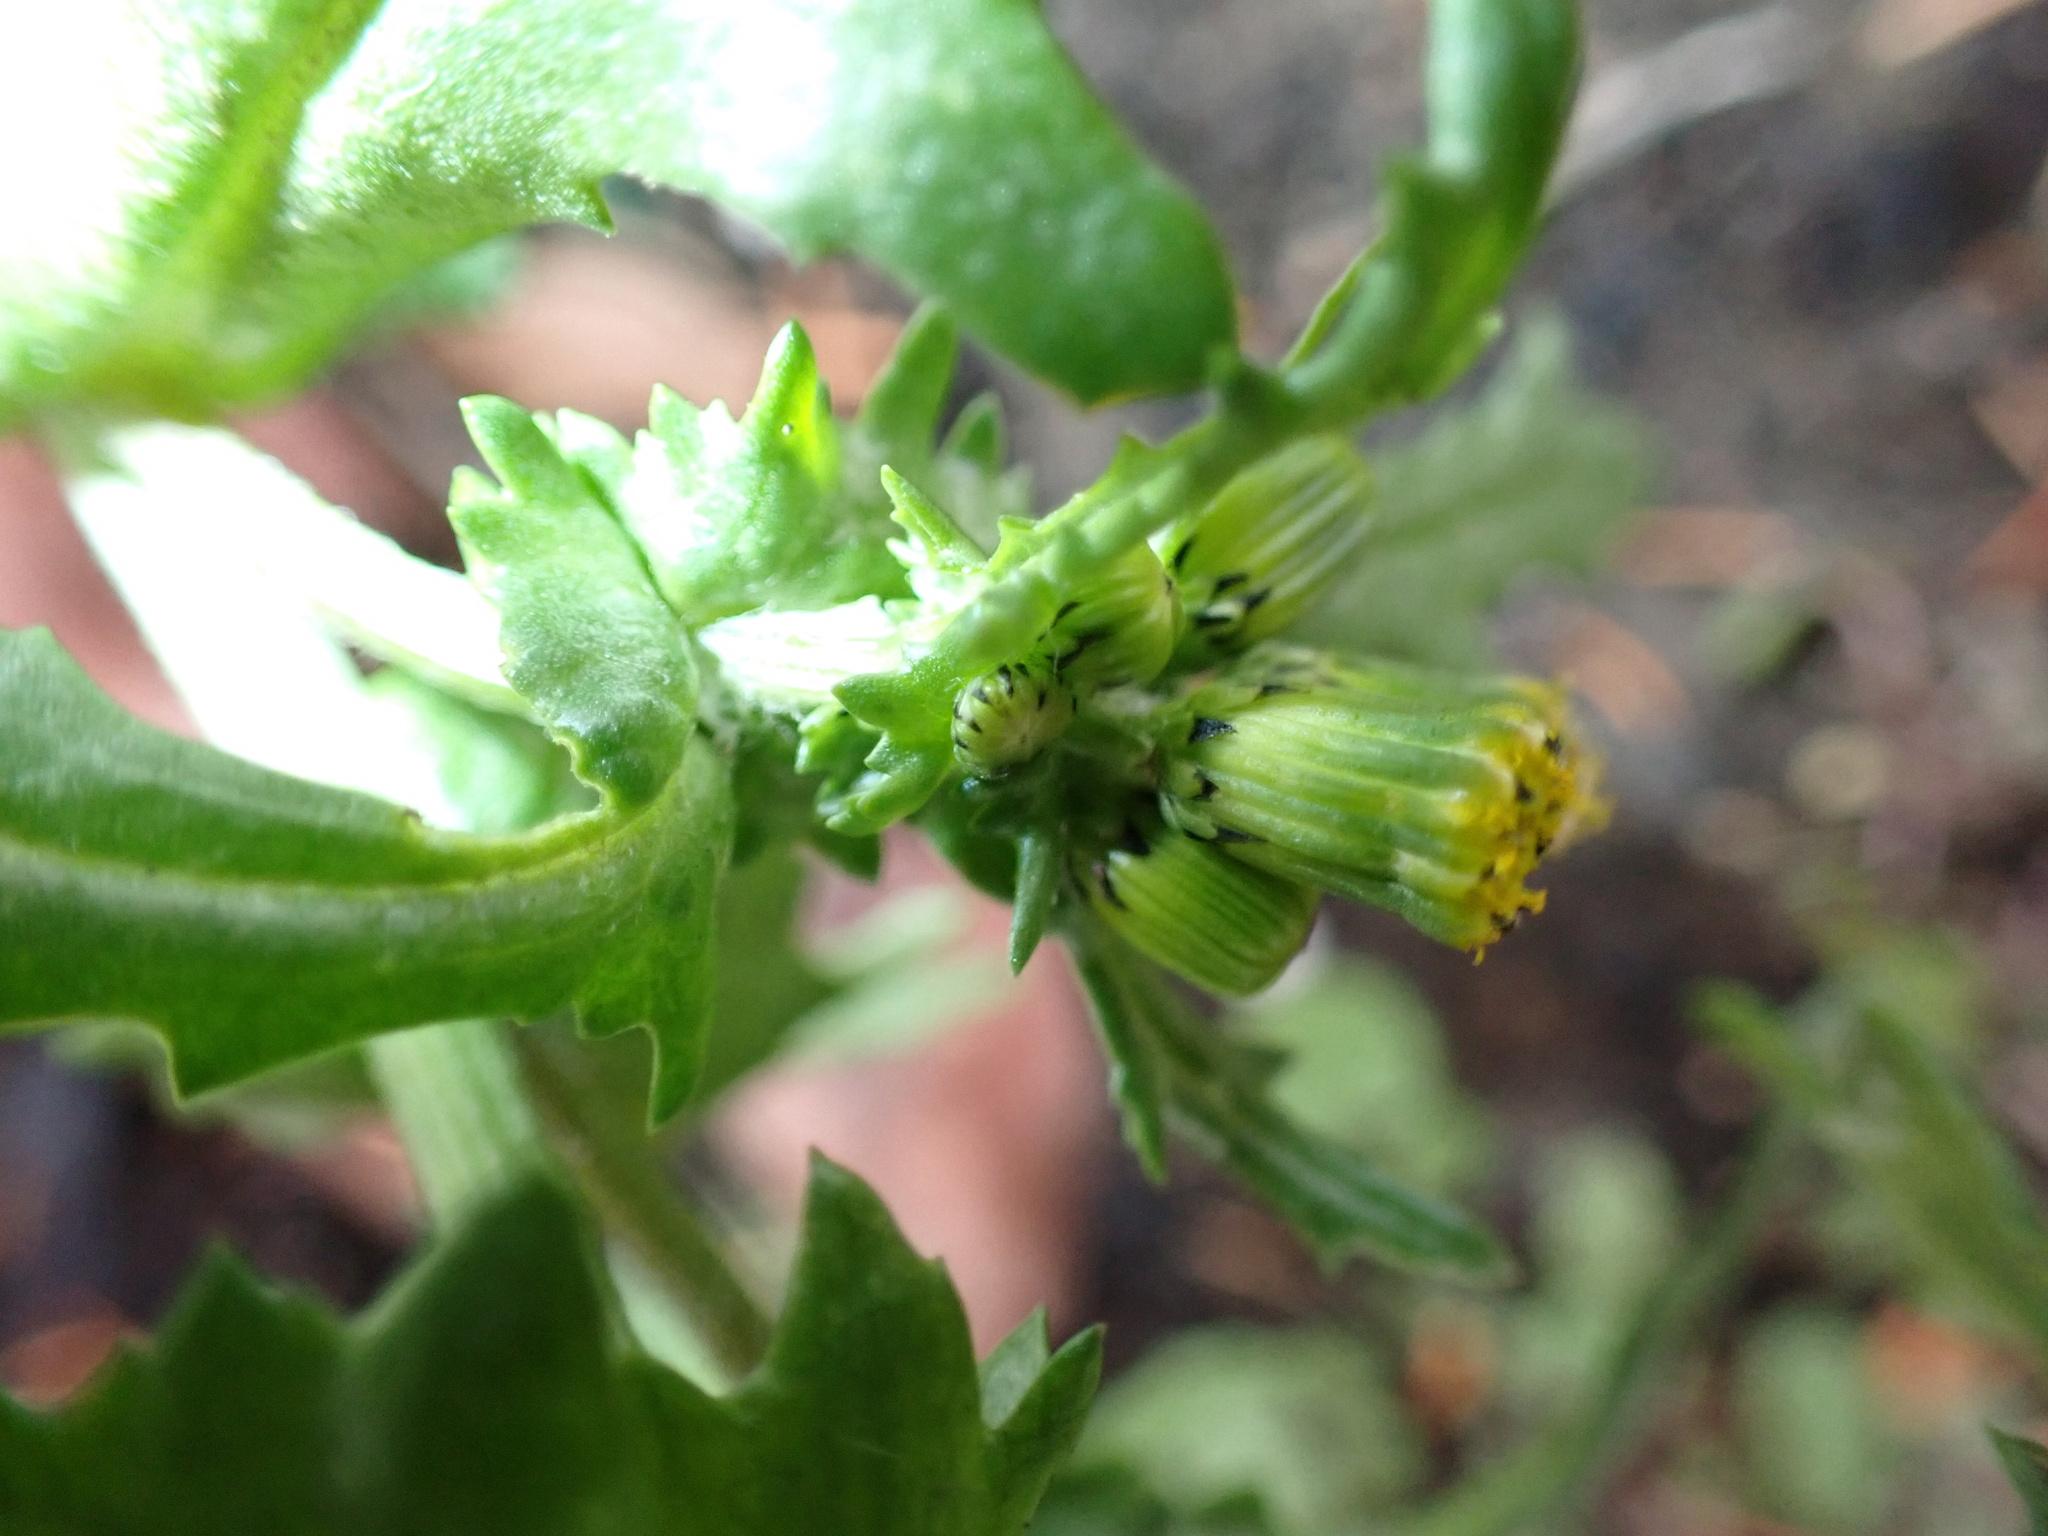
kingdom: Plantae
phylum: Tracheophyta
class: Magnoliopsida
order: Asterales
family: Asteraceae
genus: Senecio
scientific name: Senecio vulgaris
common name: Old-man-in-the-spring
